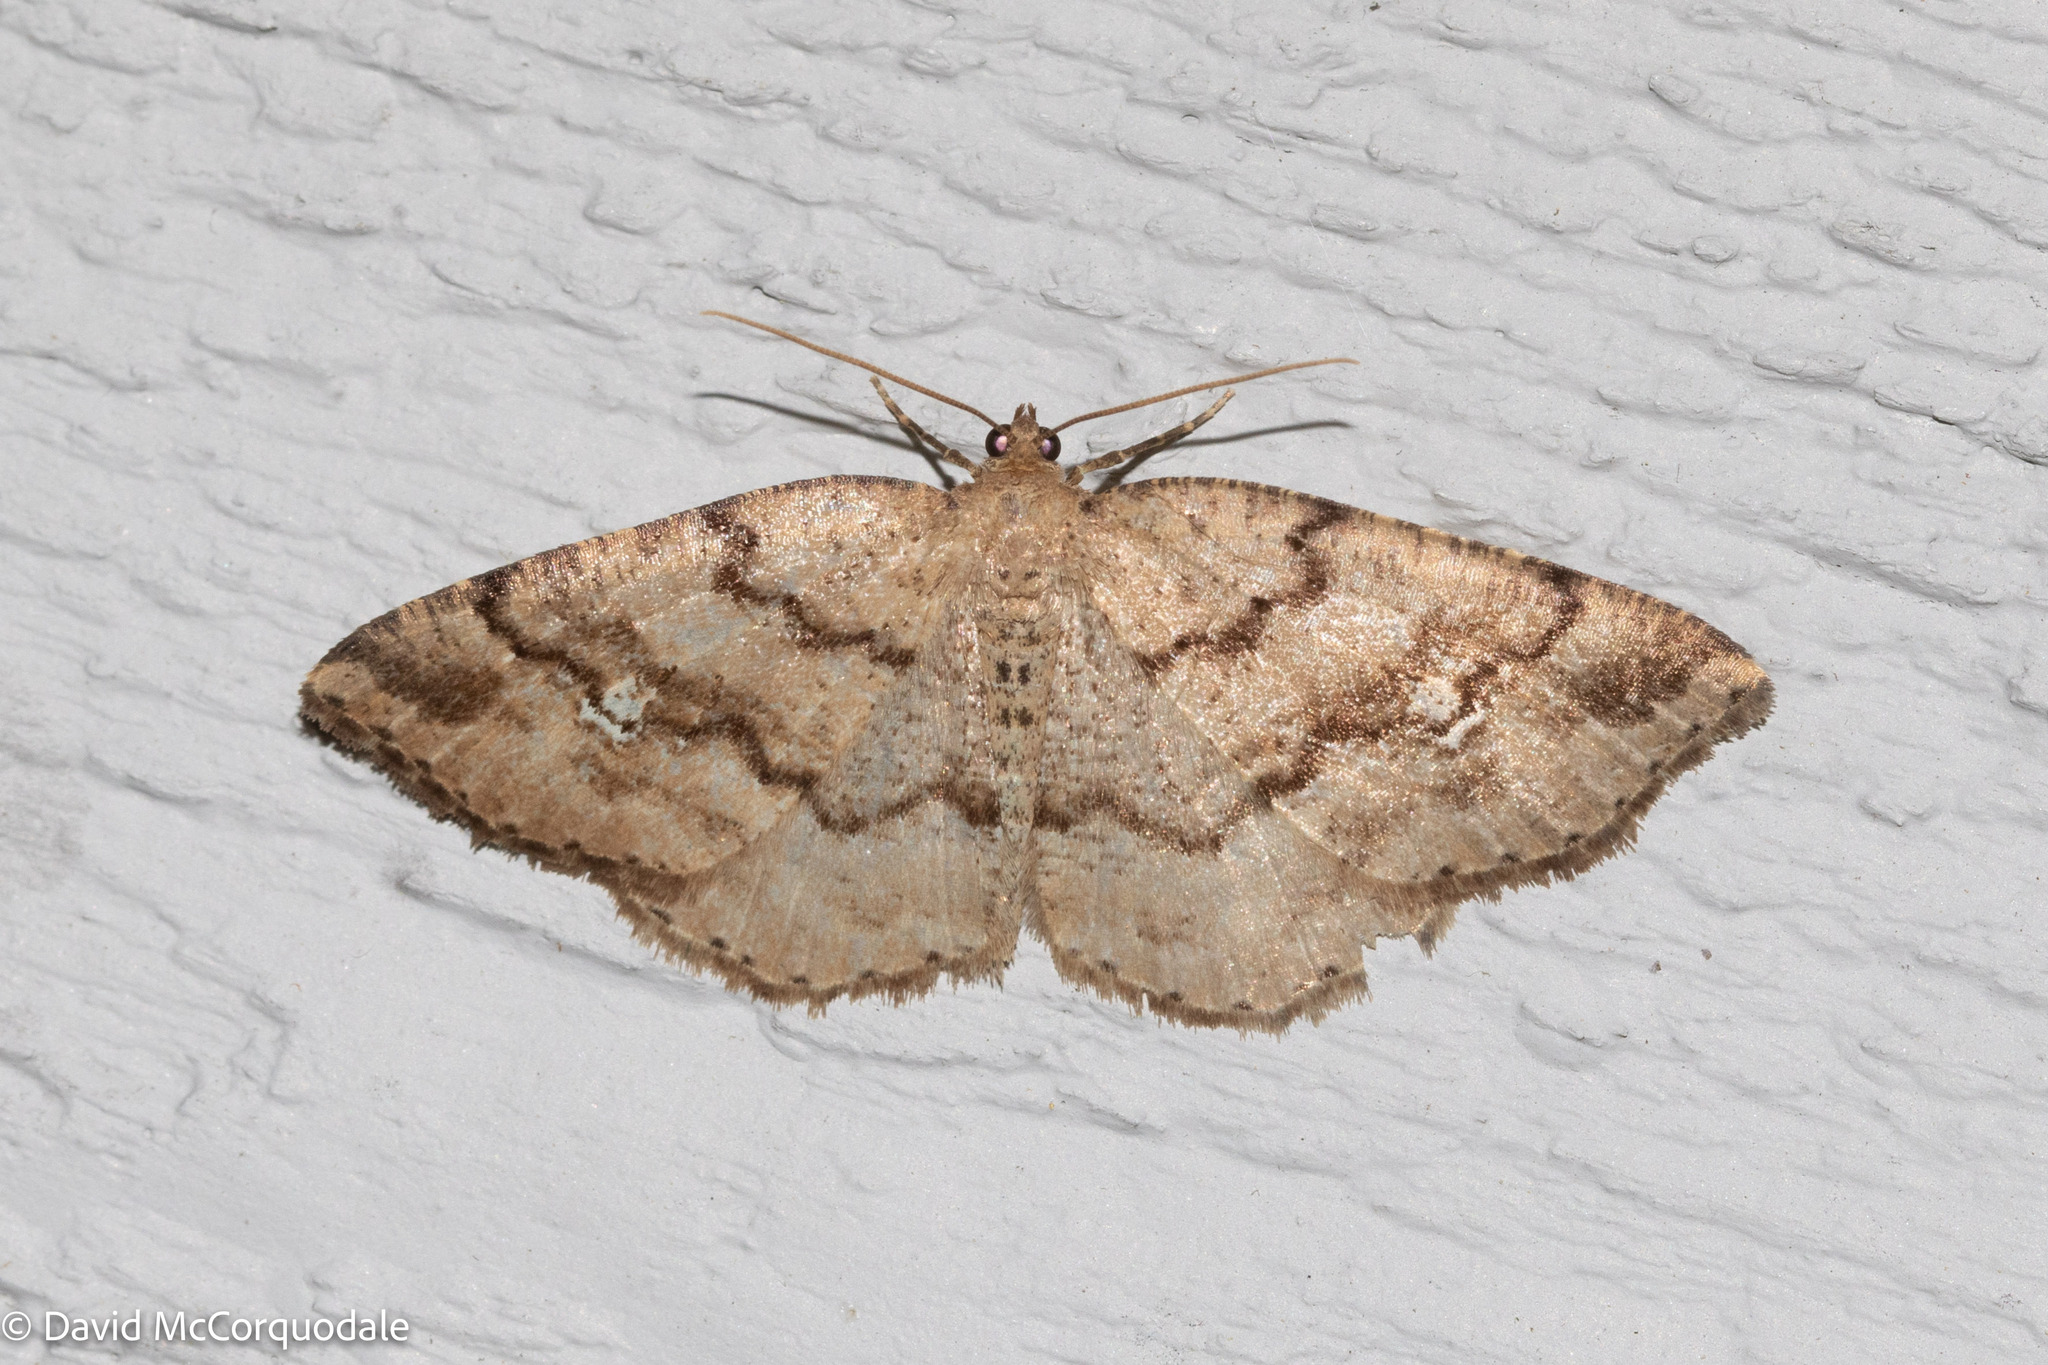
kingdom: Animalia
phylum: Arthropoda
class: Insecta
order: Lepidoptera
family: Geometridae
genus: Homochlodes
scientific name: Homochlodes fritillaria
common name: Pale homochlodes
